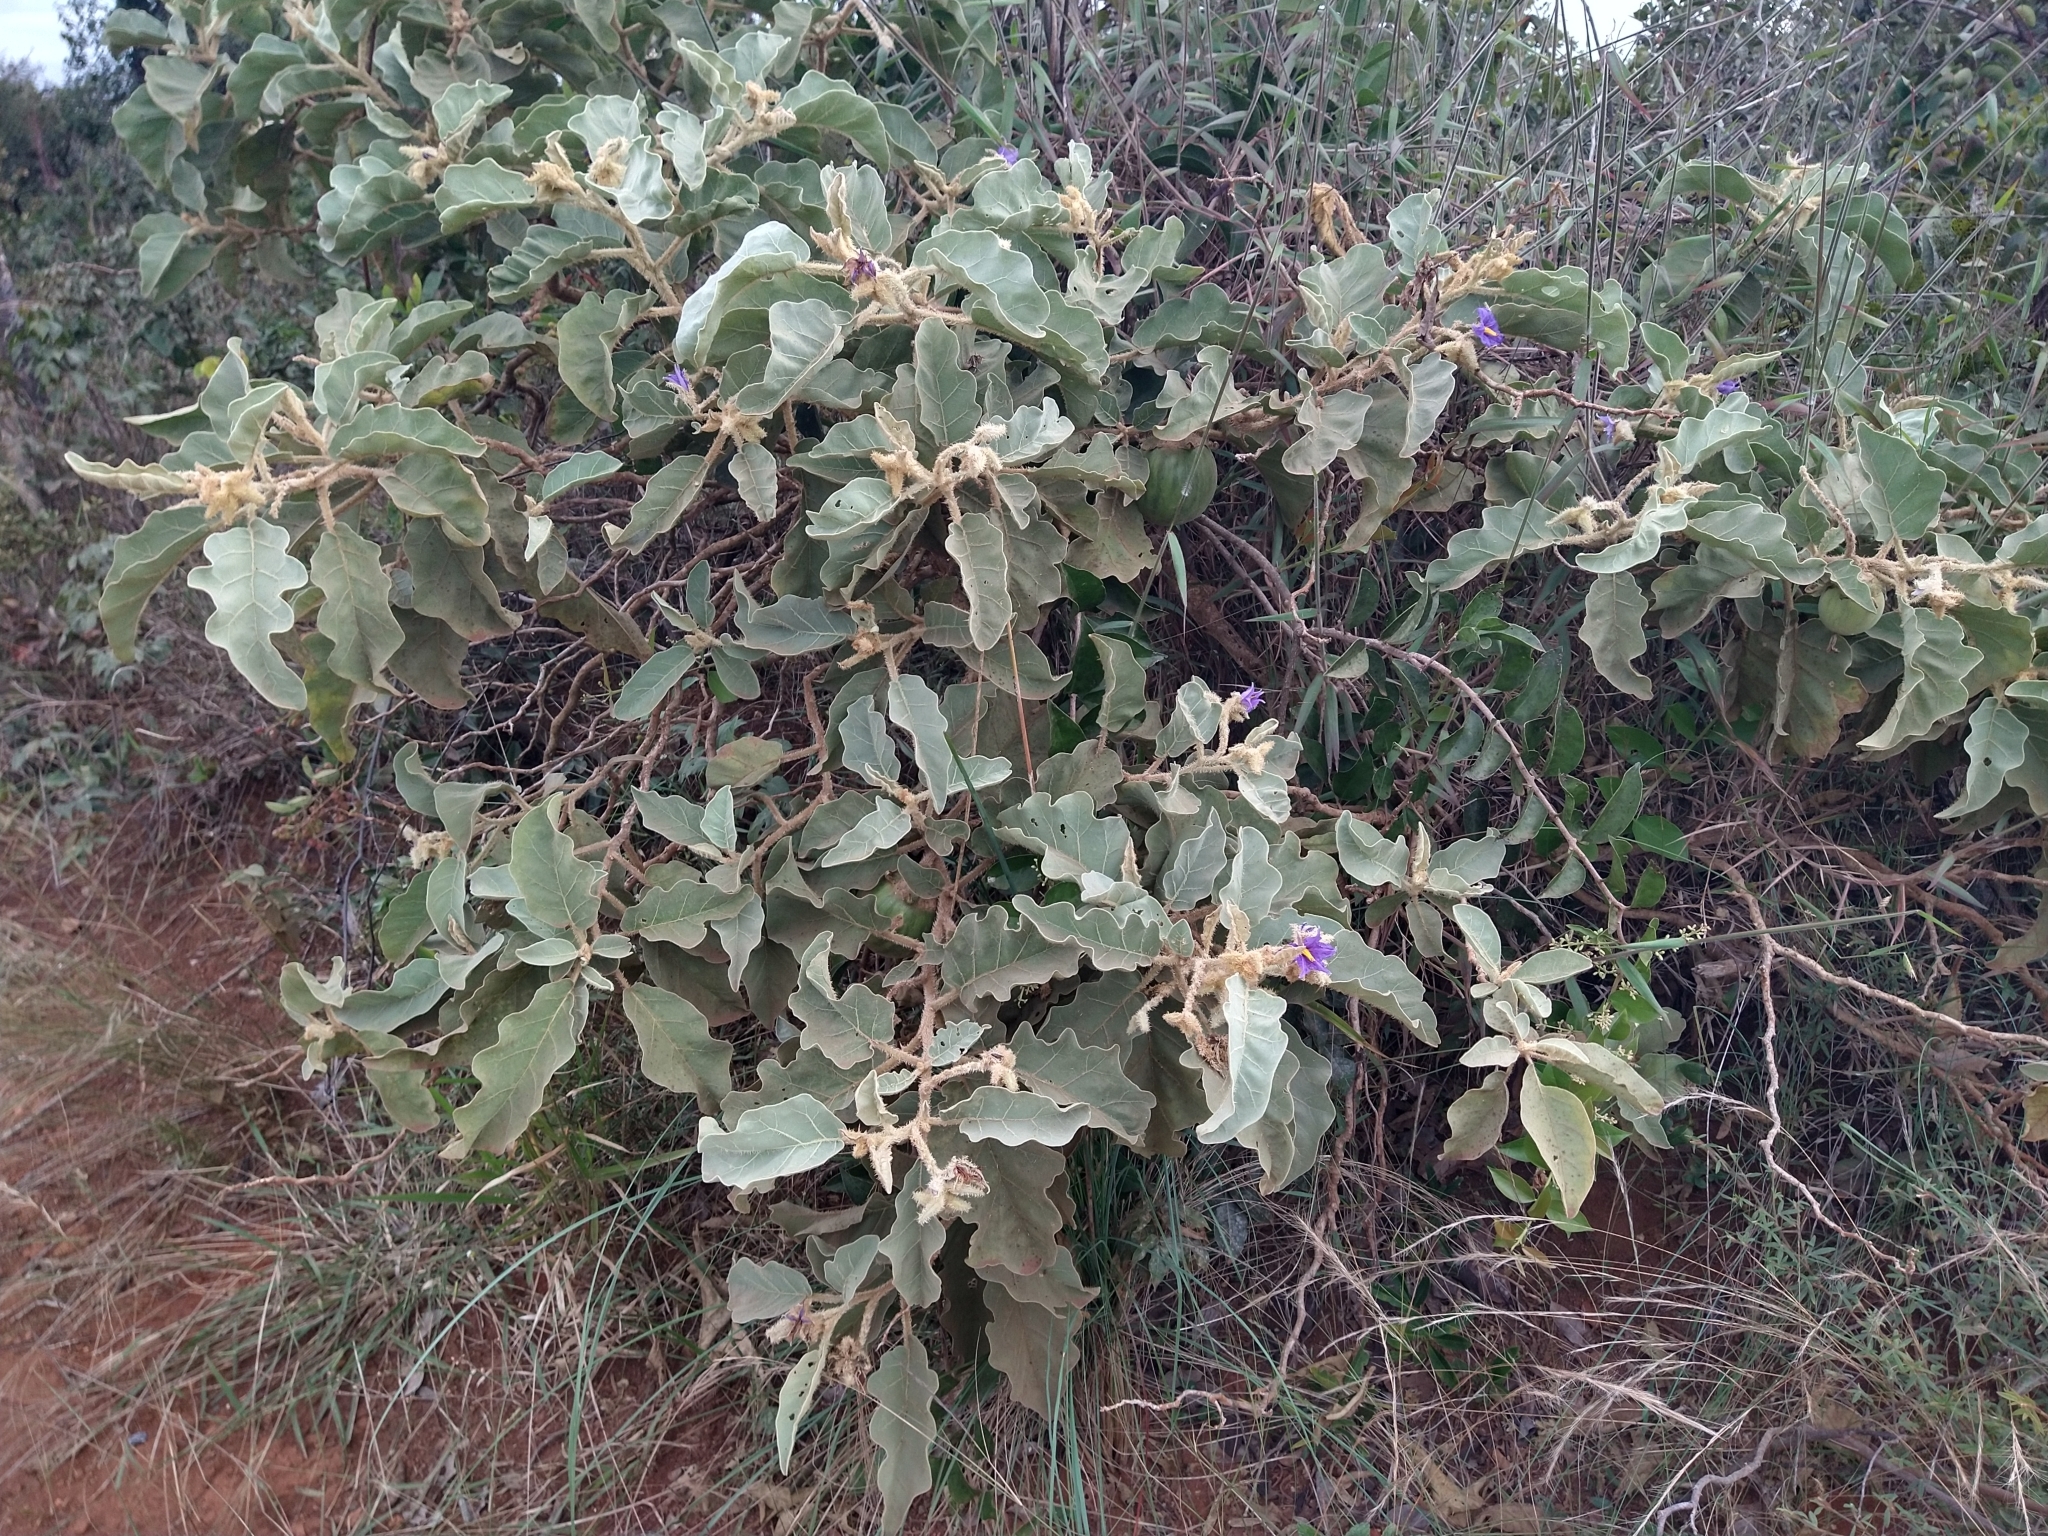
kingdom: Plantae
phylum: Tracheophyta
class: Magnoliopsida
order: Solanales
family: Solanaceae
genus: Solanum
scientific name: Solanum lycocarpum
